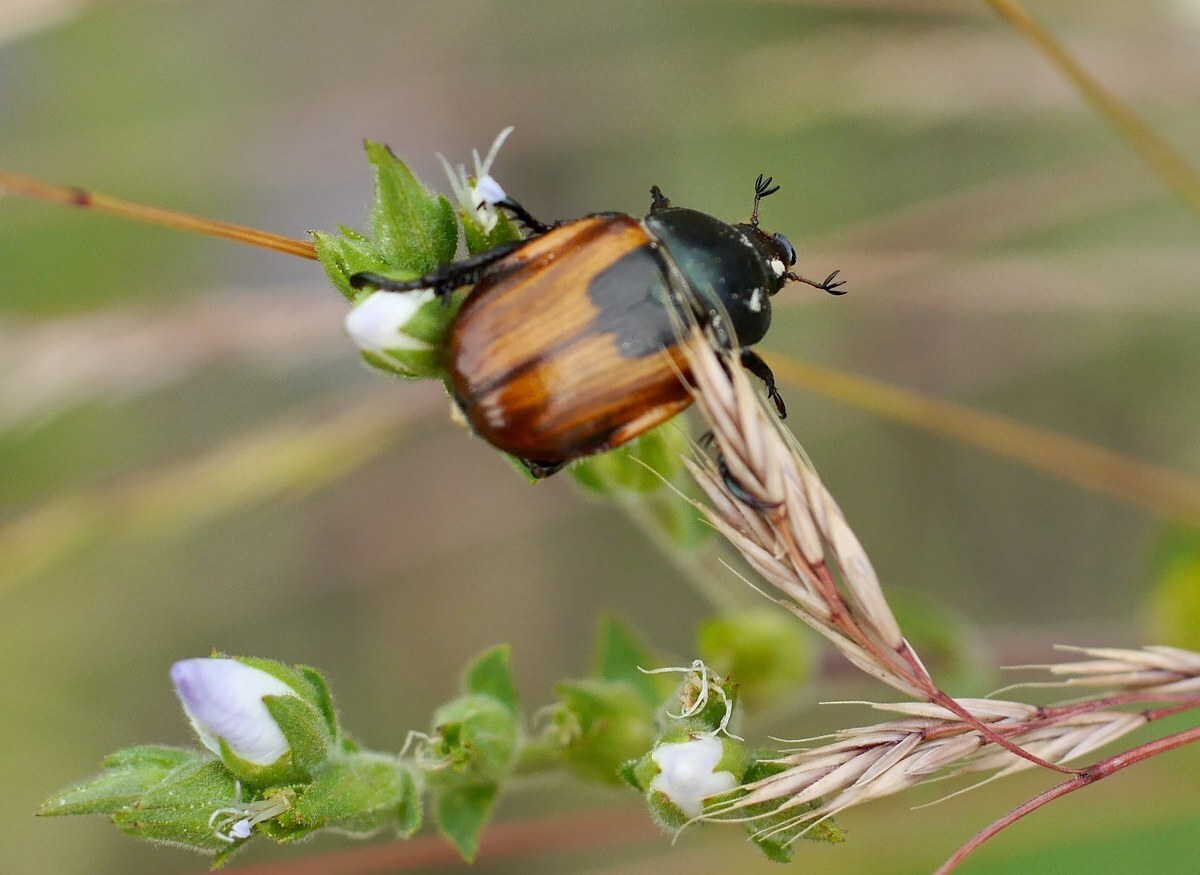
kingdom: Animalia
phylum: Arthropoda
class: Insecta
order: Coleoptera
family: Scarabaeidae
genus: Anisoplia
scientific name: Anisoplia austriaca
